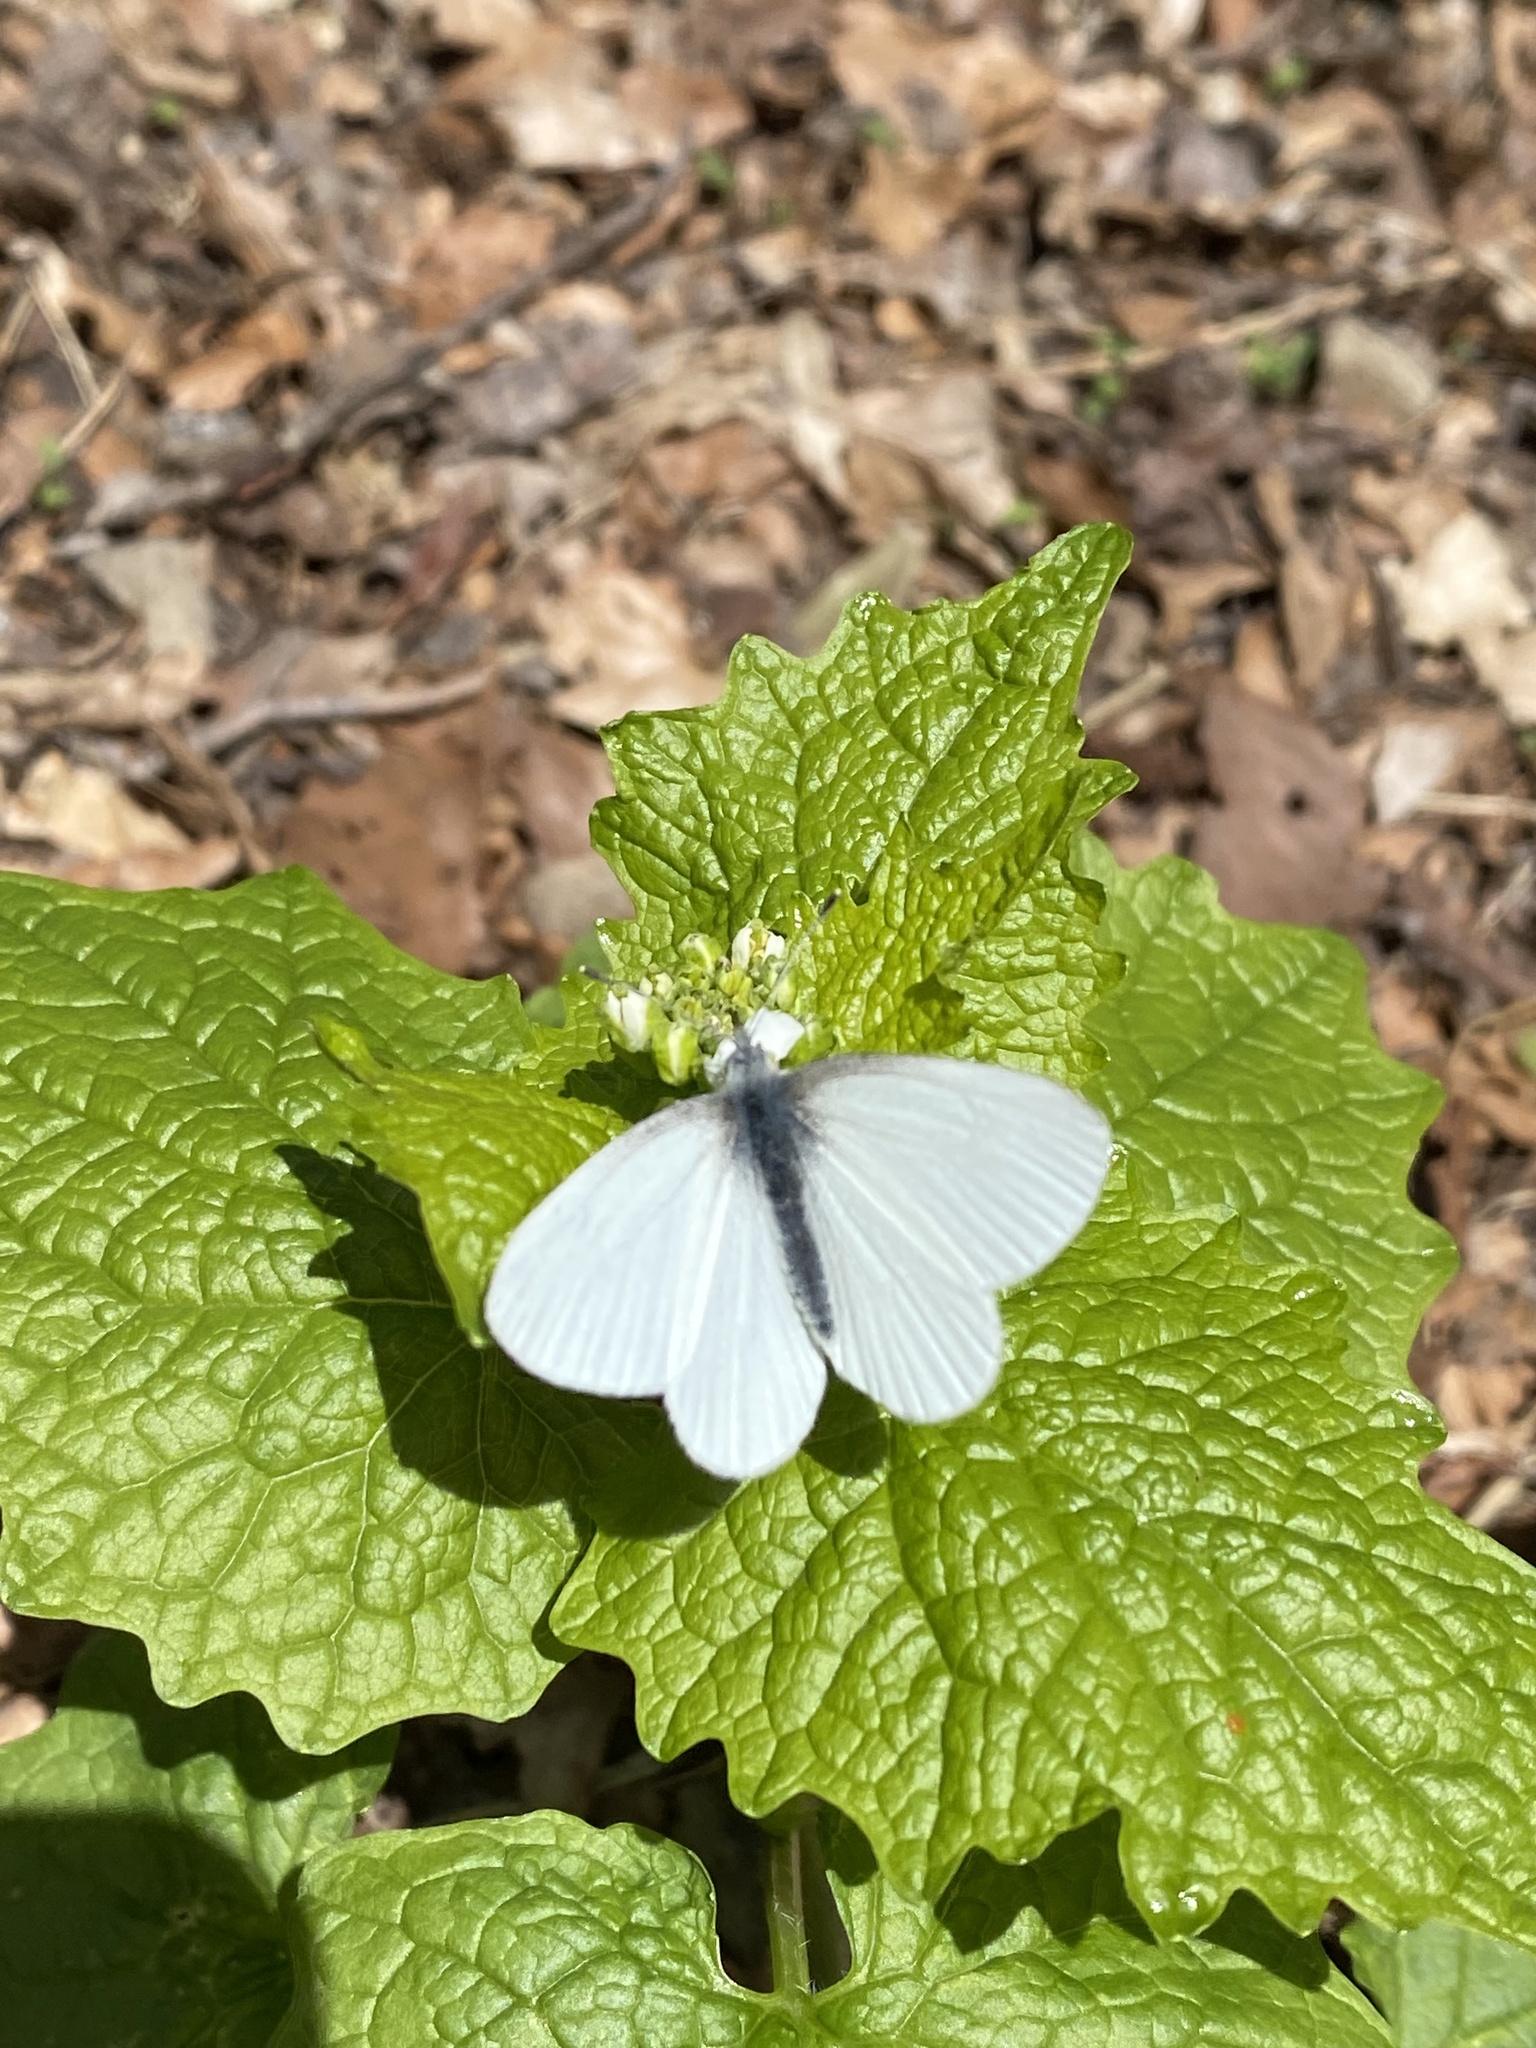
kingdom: Animalia
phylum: Arthropoda
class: Insecta
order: Lepidoptera
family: Pieridae
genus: Pieris
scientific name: Pieris virginiensis
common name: West virginia white
